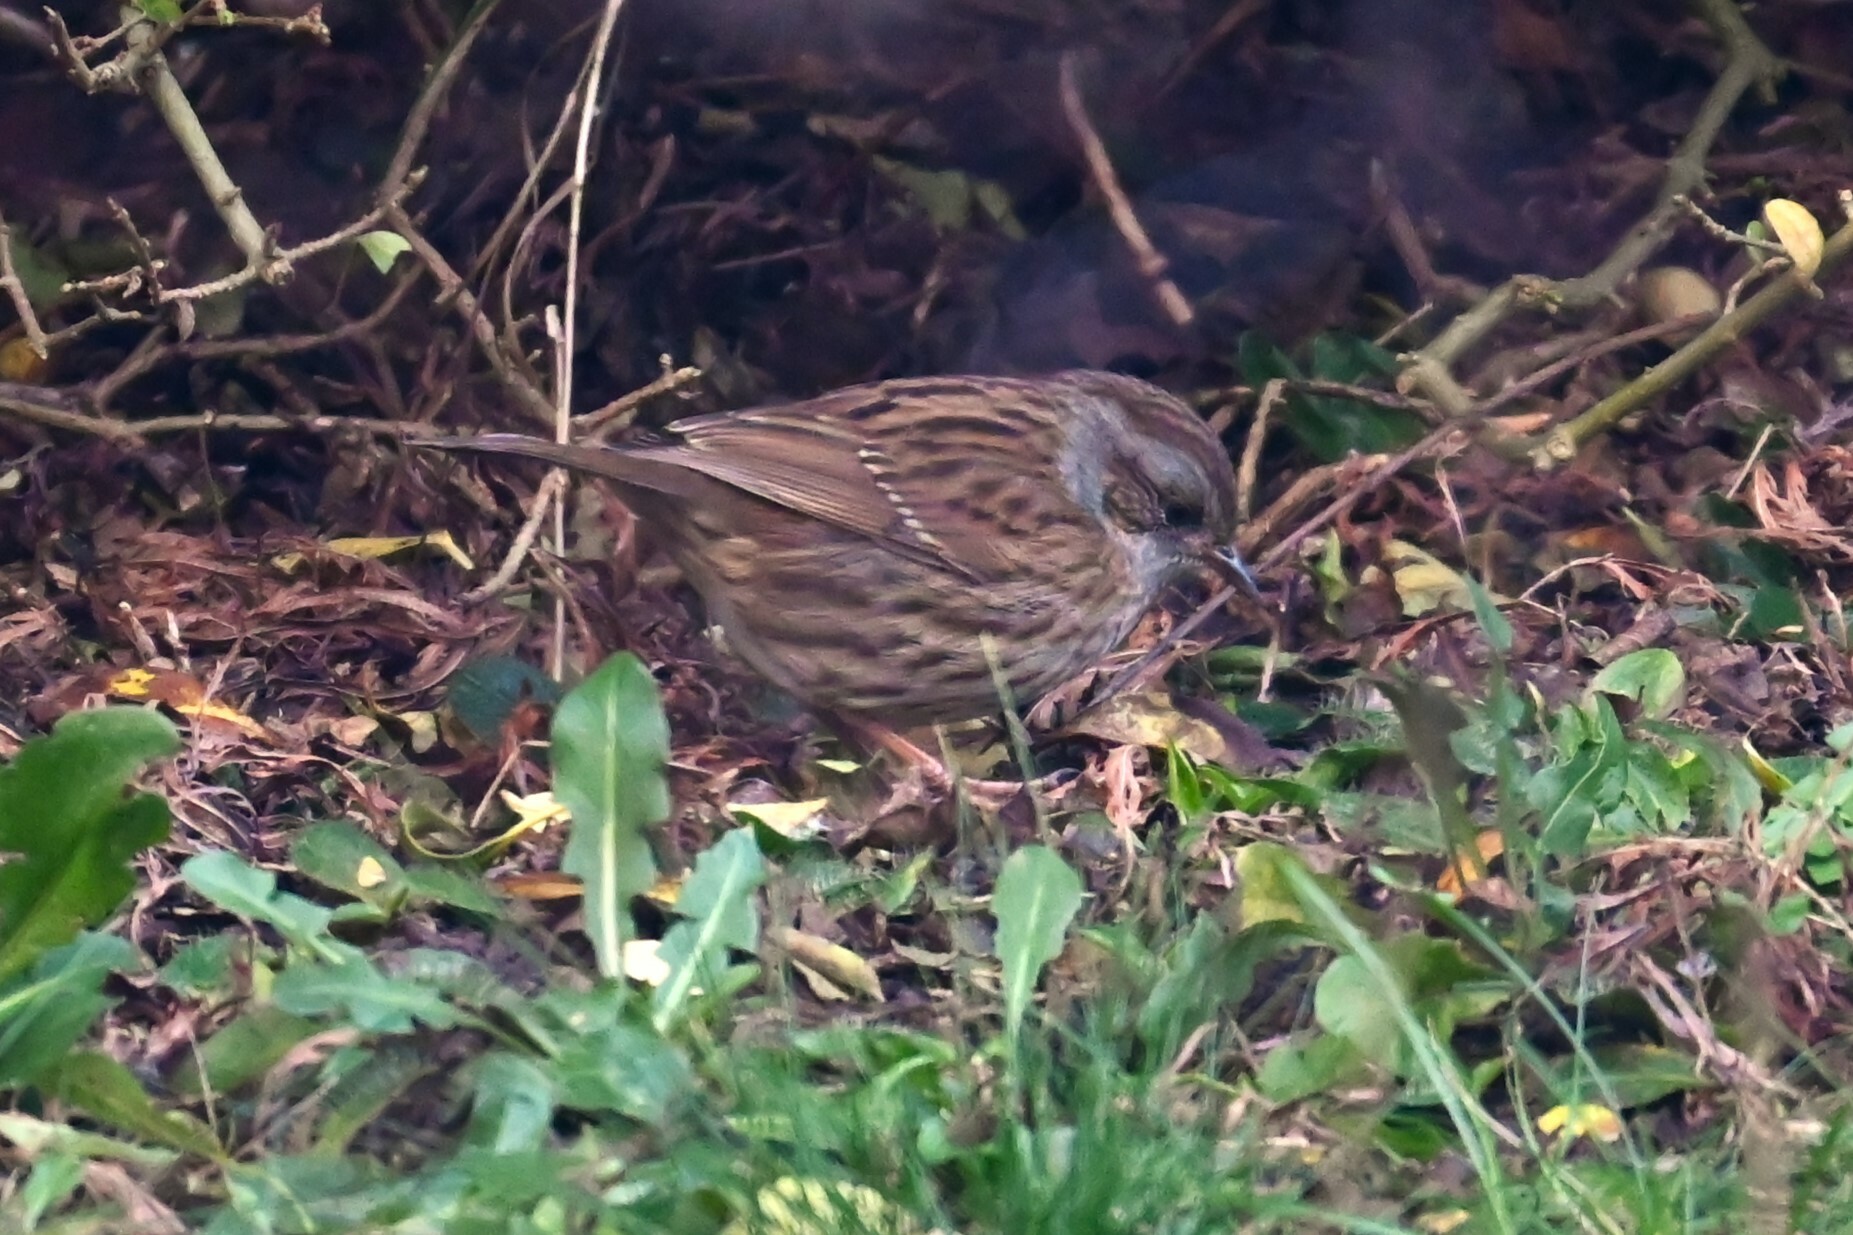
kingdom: Animalia
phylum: Chordata
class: Aves
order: Passeriformes
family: Prunellidae
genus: Prunella
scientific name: Prunella modularis
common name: Dunnock
